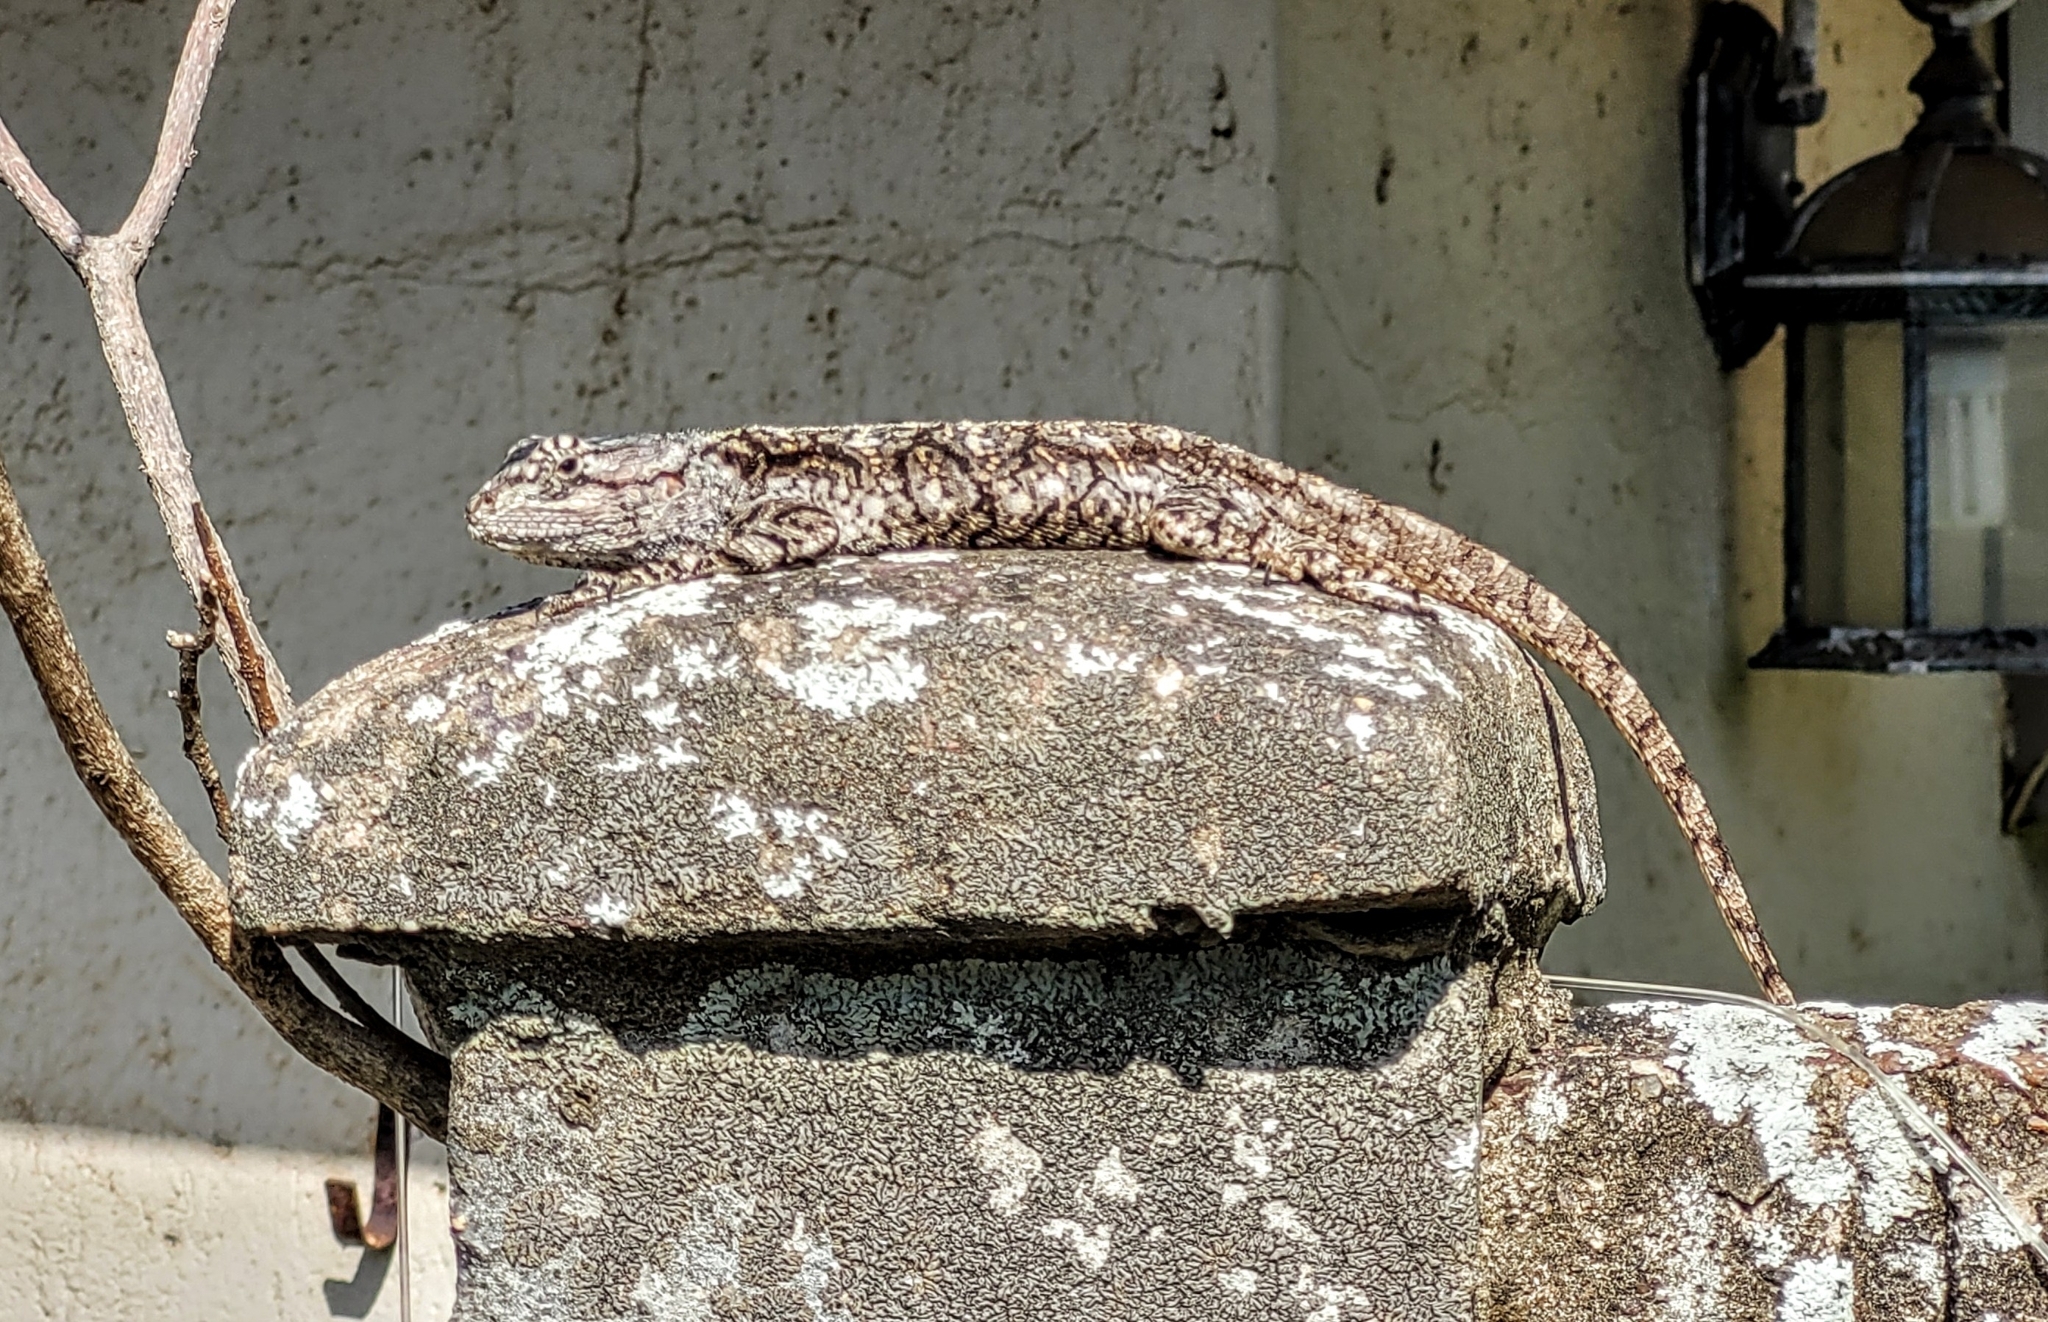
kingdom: Animalia
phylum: Chordata
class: Squamata
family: Agamidae
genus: Acanthocercus
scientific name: Acanthocercus atricollis
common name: Southern tree agama
